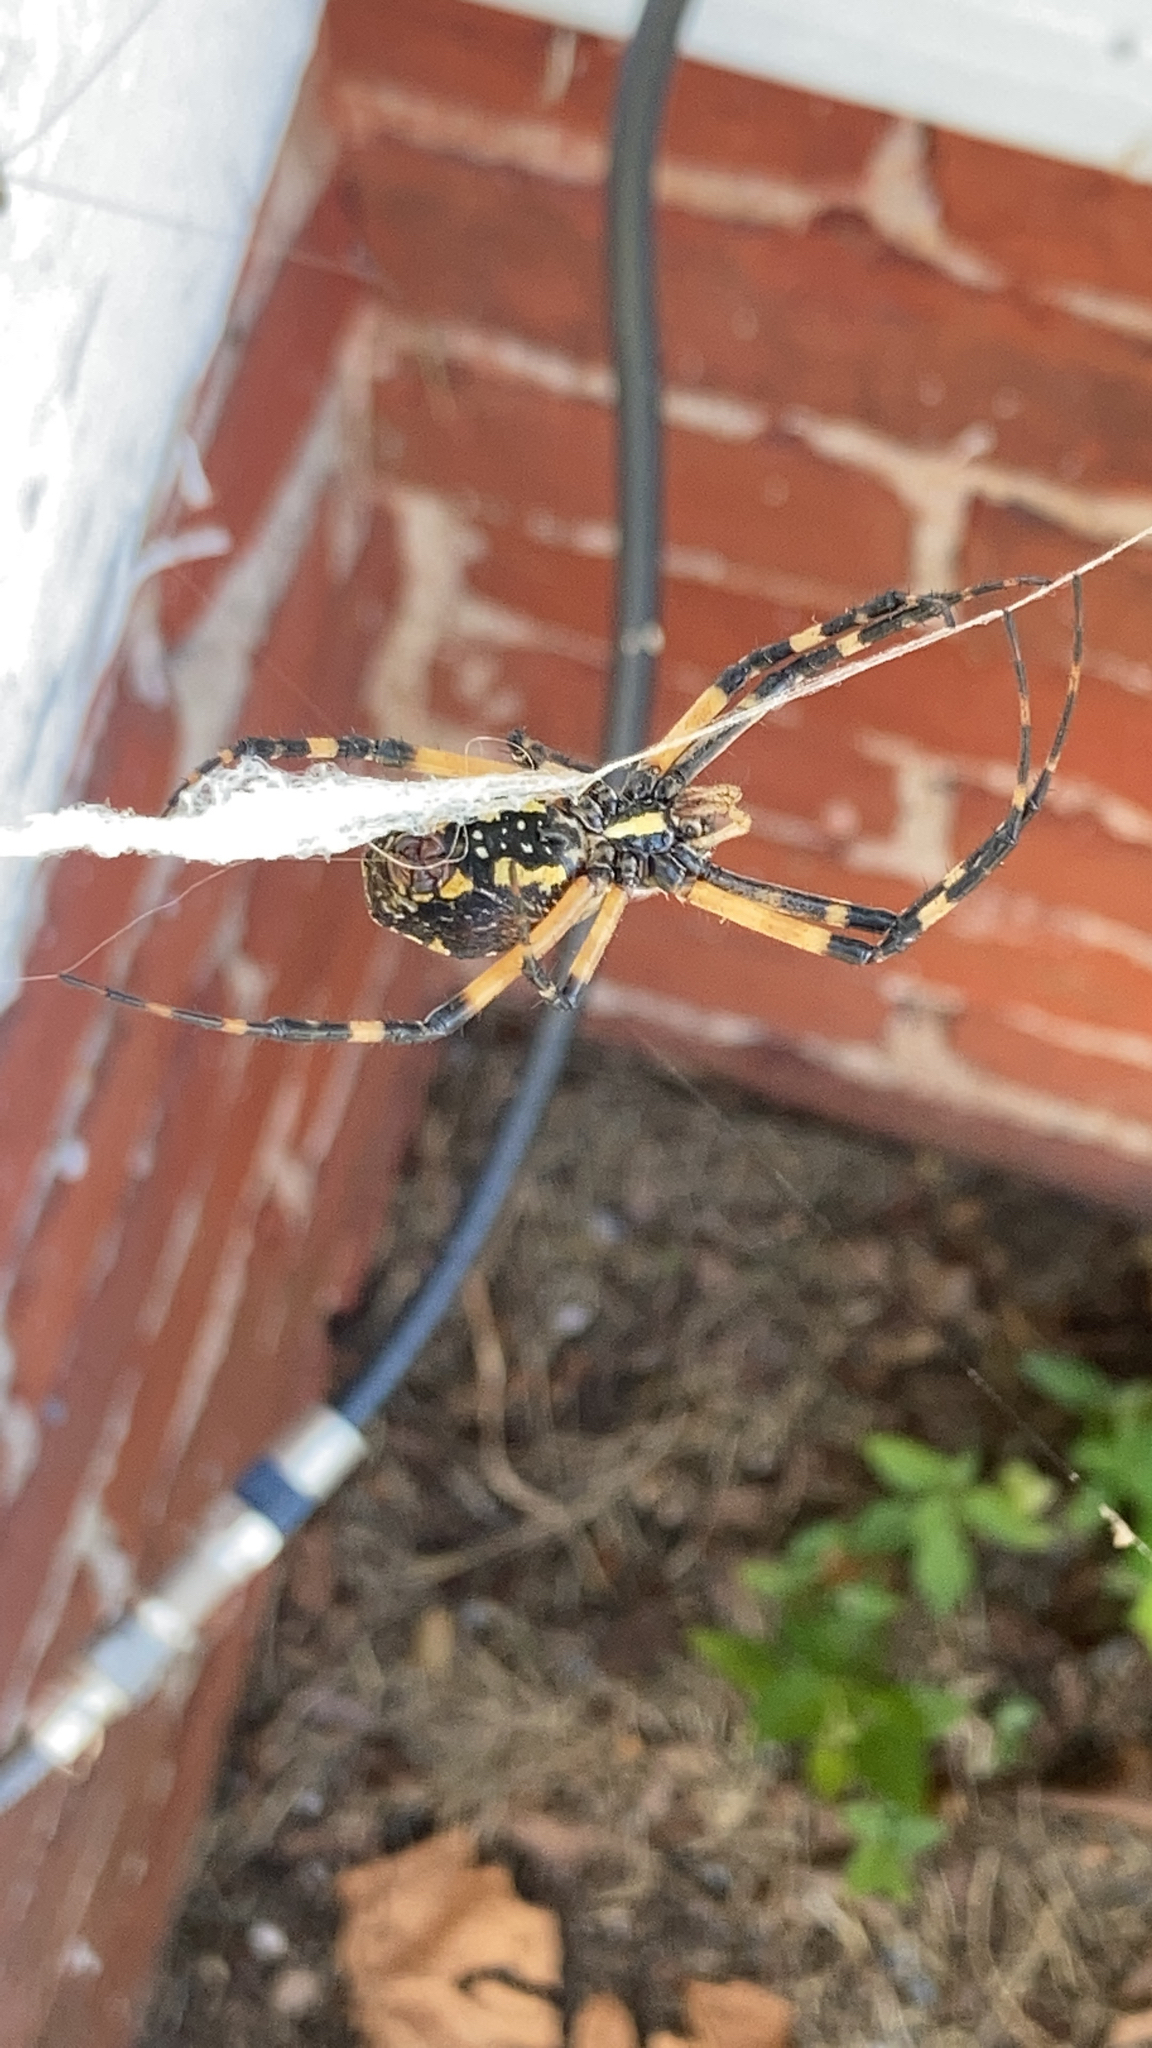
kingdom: Animalia
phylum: Arthropoda
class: Arachnida
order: Araneae
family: Araneidae
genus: Argiope
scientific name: Argiope aurantia
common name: Orb weavers
